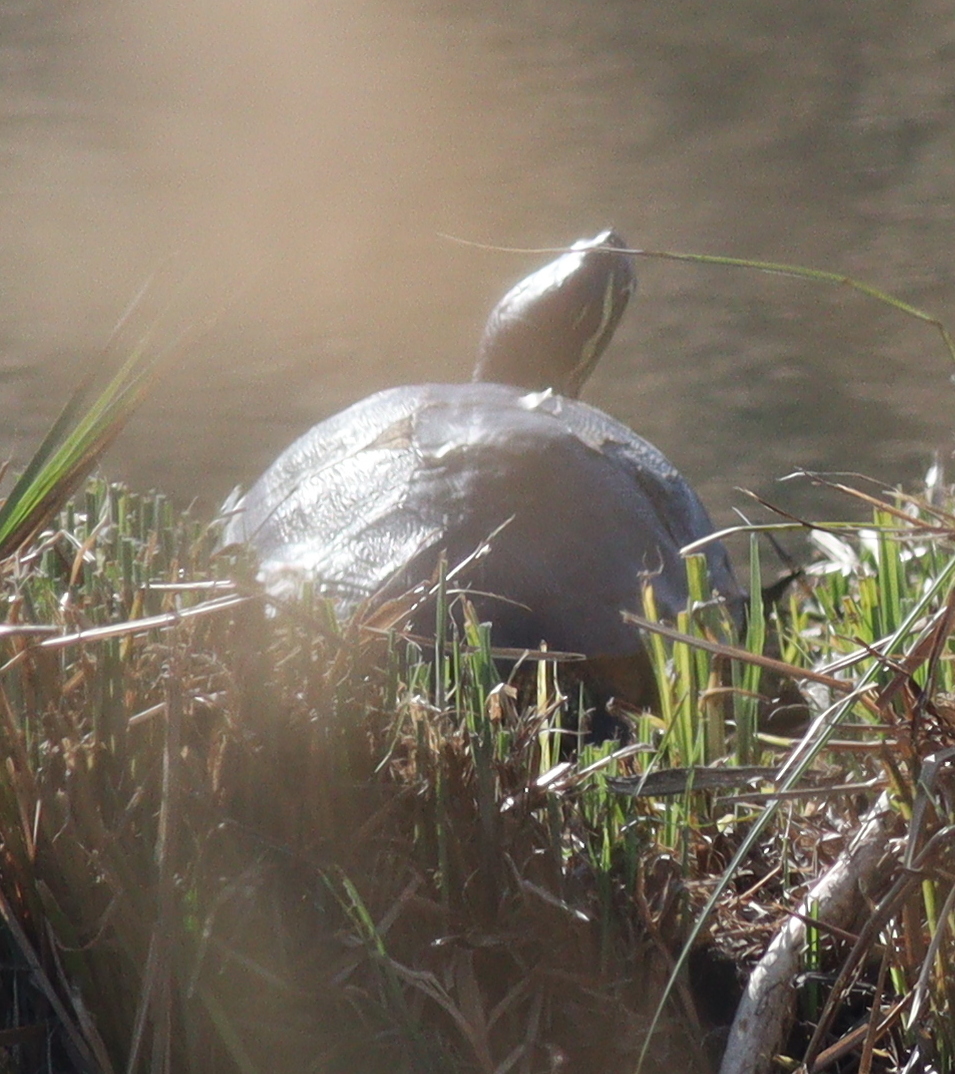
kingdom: Animalia
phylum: Chordata
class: Testudines
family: Emydidae
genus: Trachemys
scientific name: Trachemys scripta
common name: Slider
